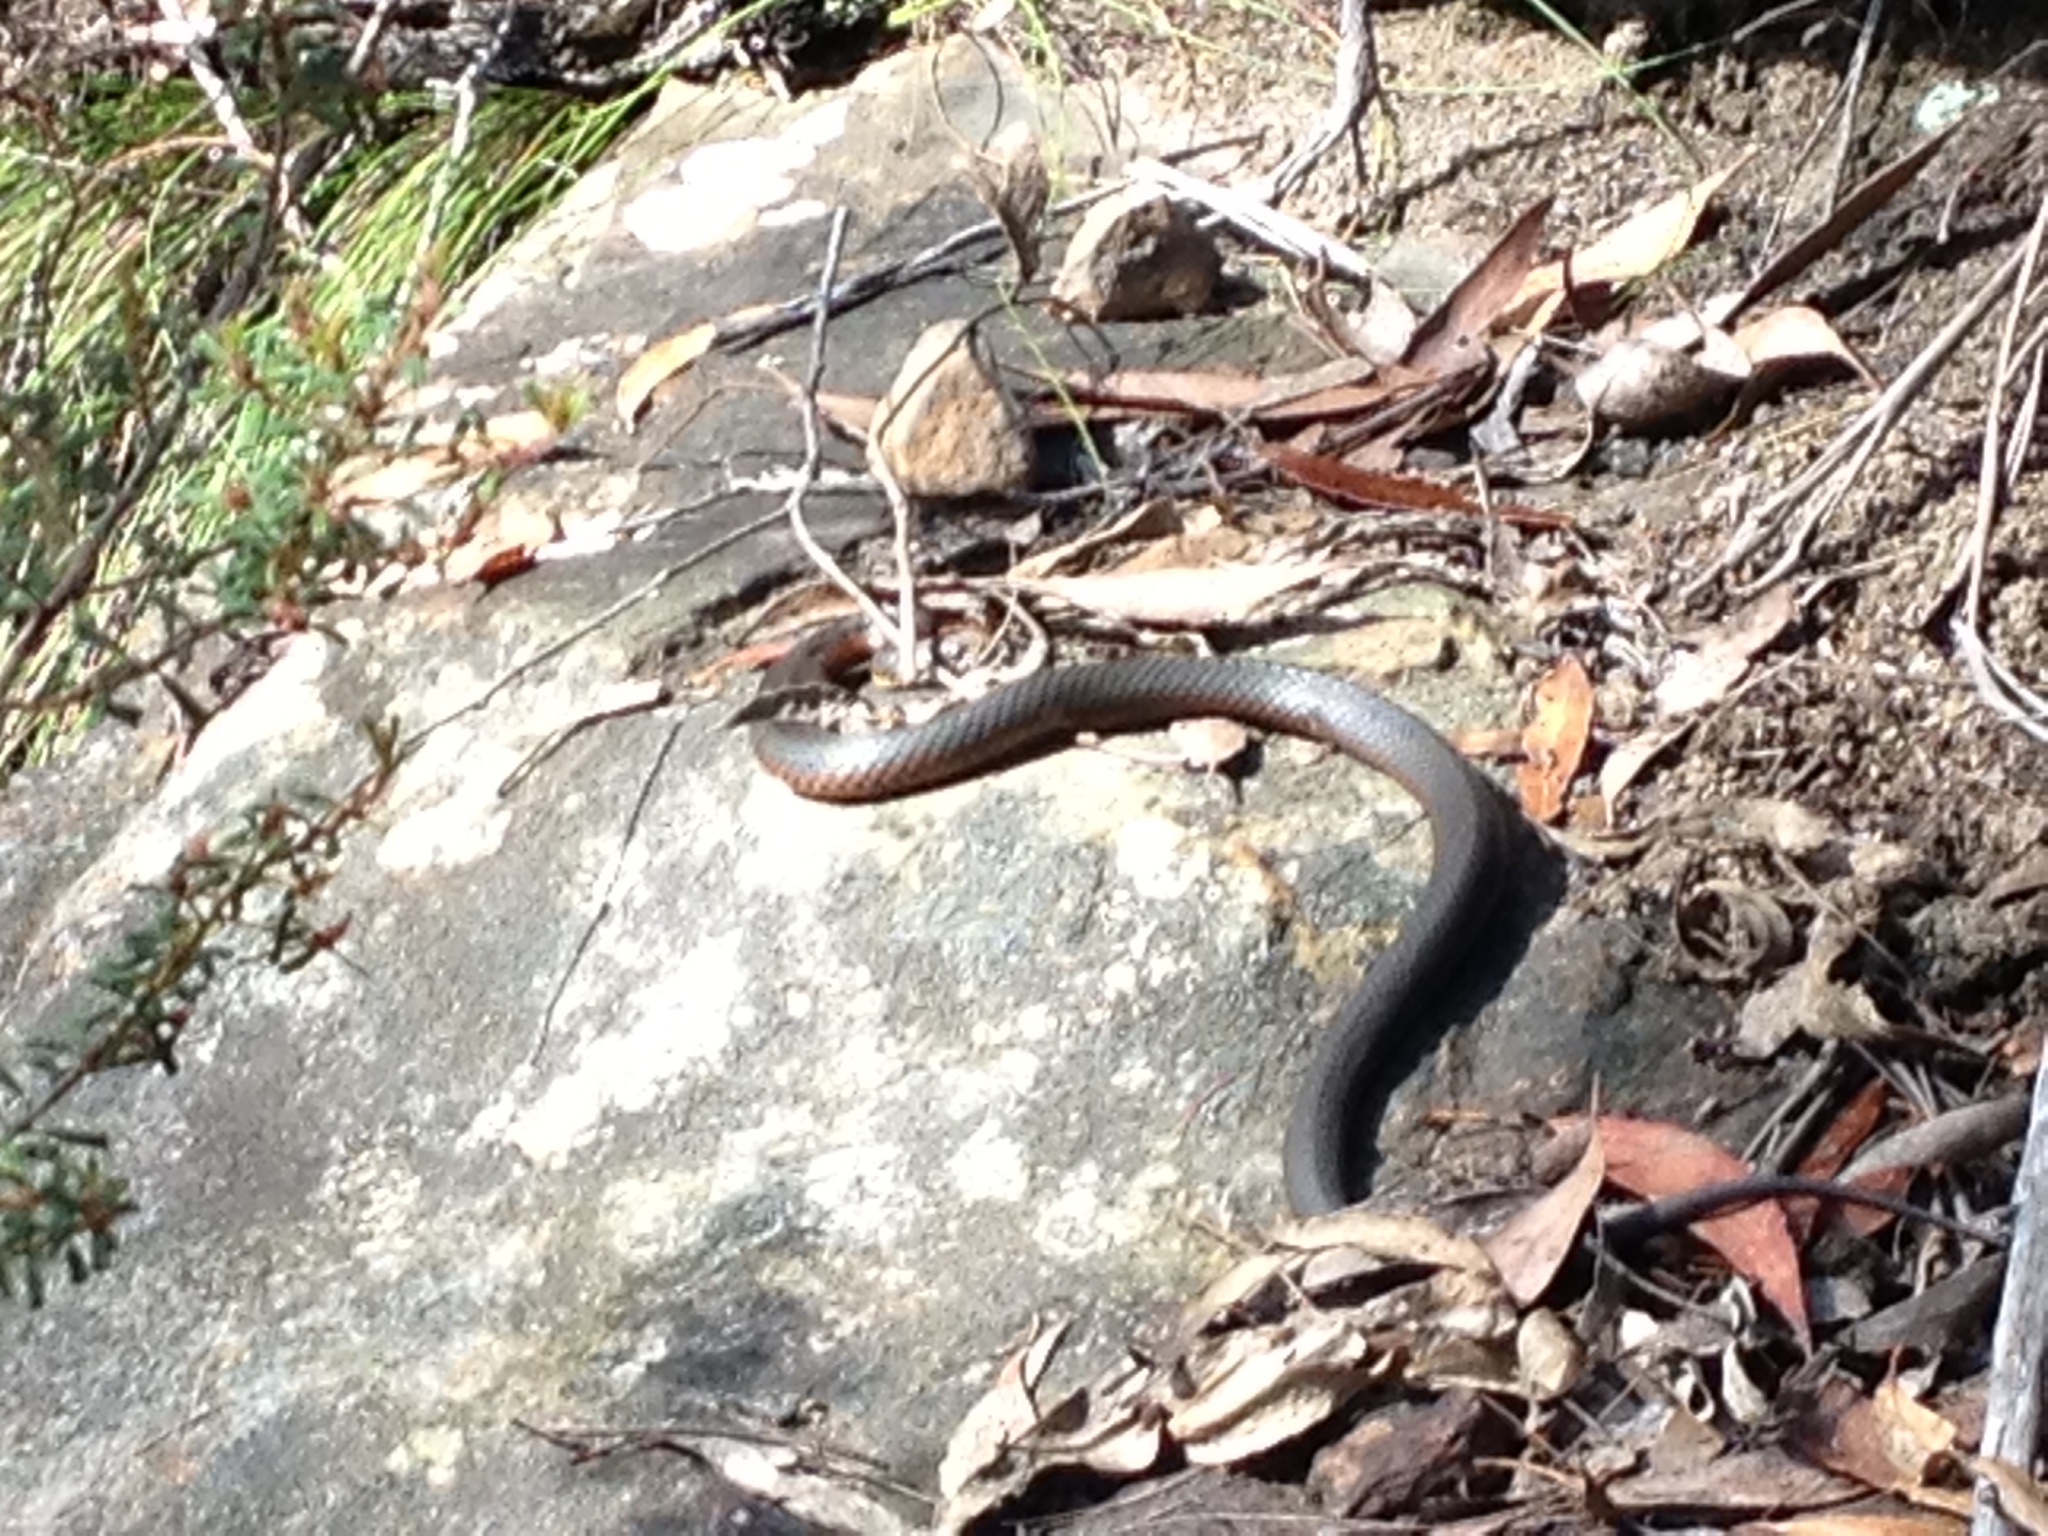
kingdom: Animalia
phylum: Chordata
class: Squamata
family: Elapidae
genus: Austrelaps
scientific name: Austrelaps ramsayi
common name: Highlands copperhead
